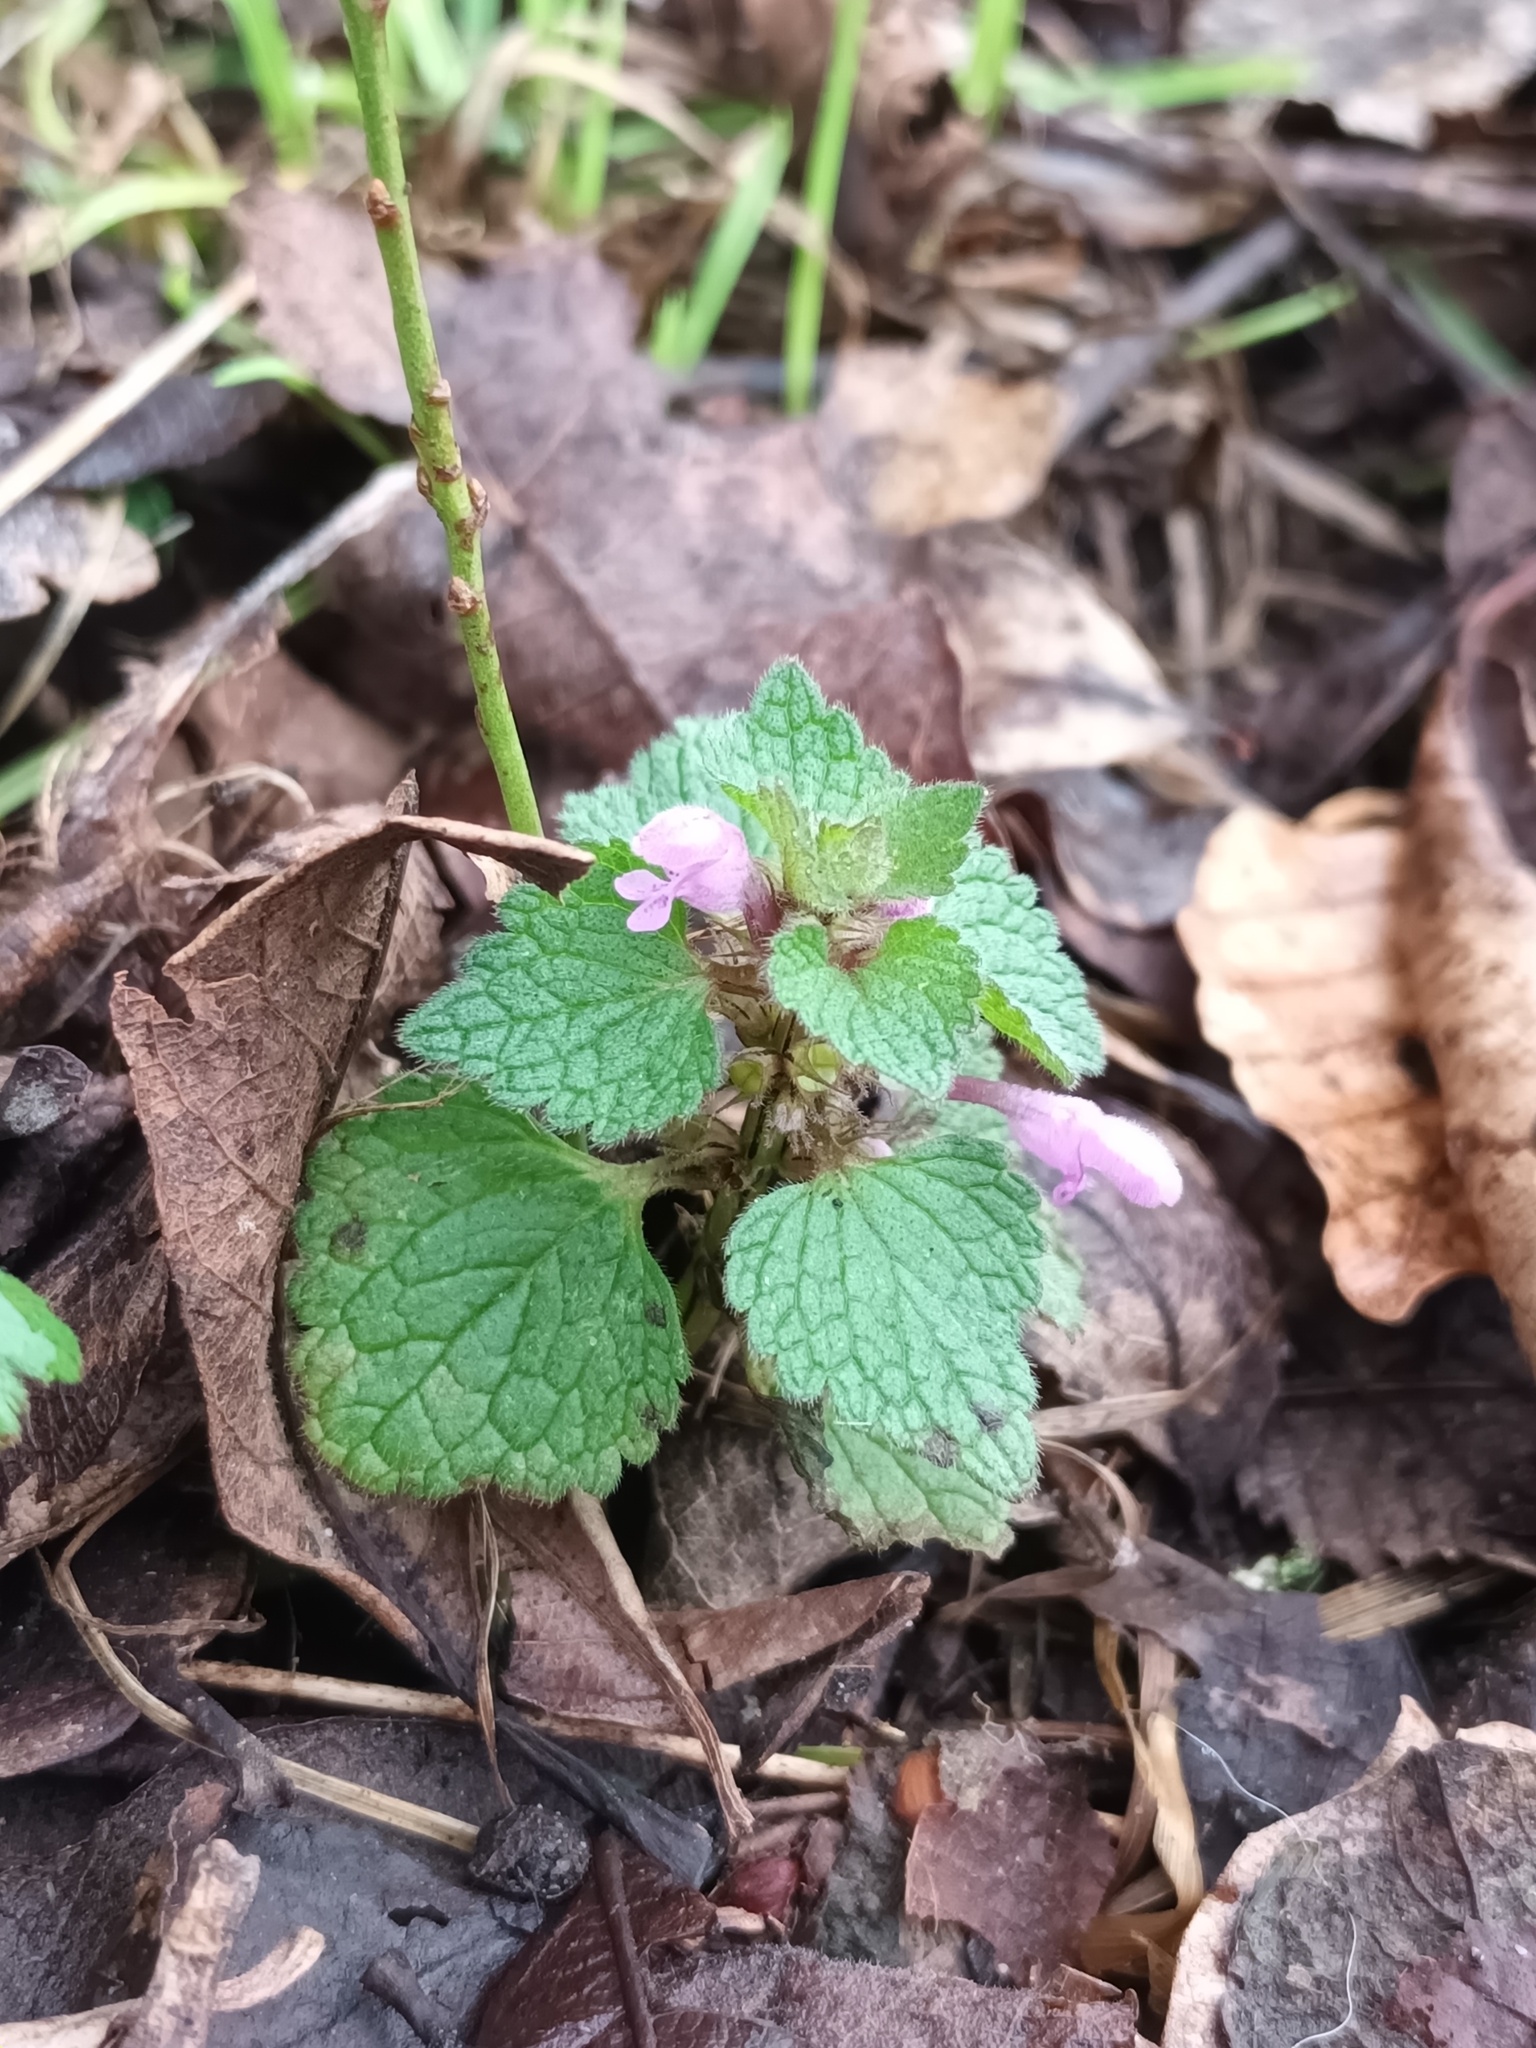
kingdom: Plantae
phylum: Tracheophyta
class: Magnoliopsida
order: Lamiales
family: Lamiaceae
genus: Lamium
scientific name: Lamium purpureum
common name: Red dead-nettle
